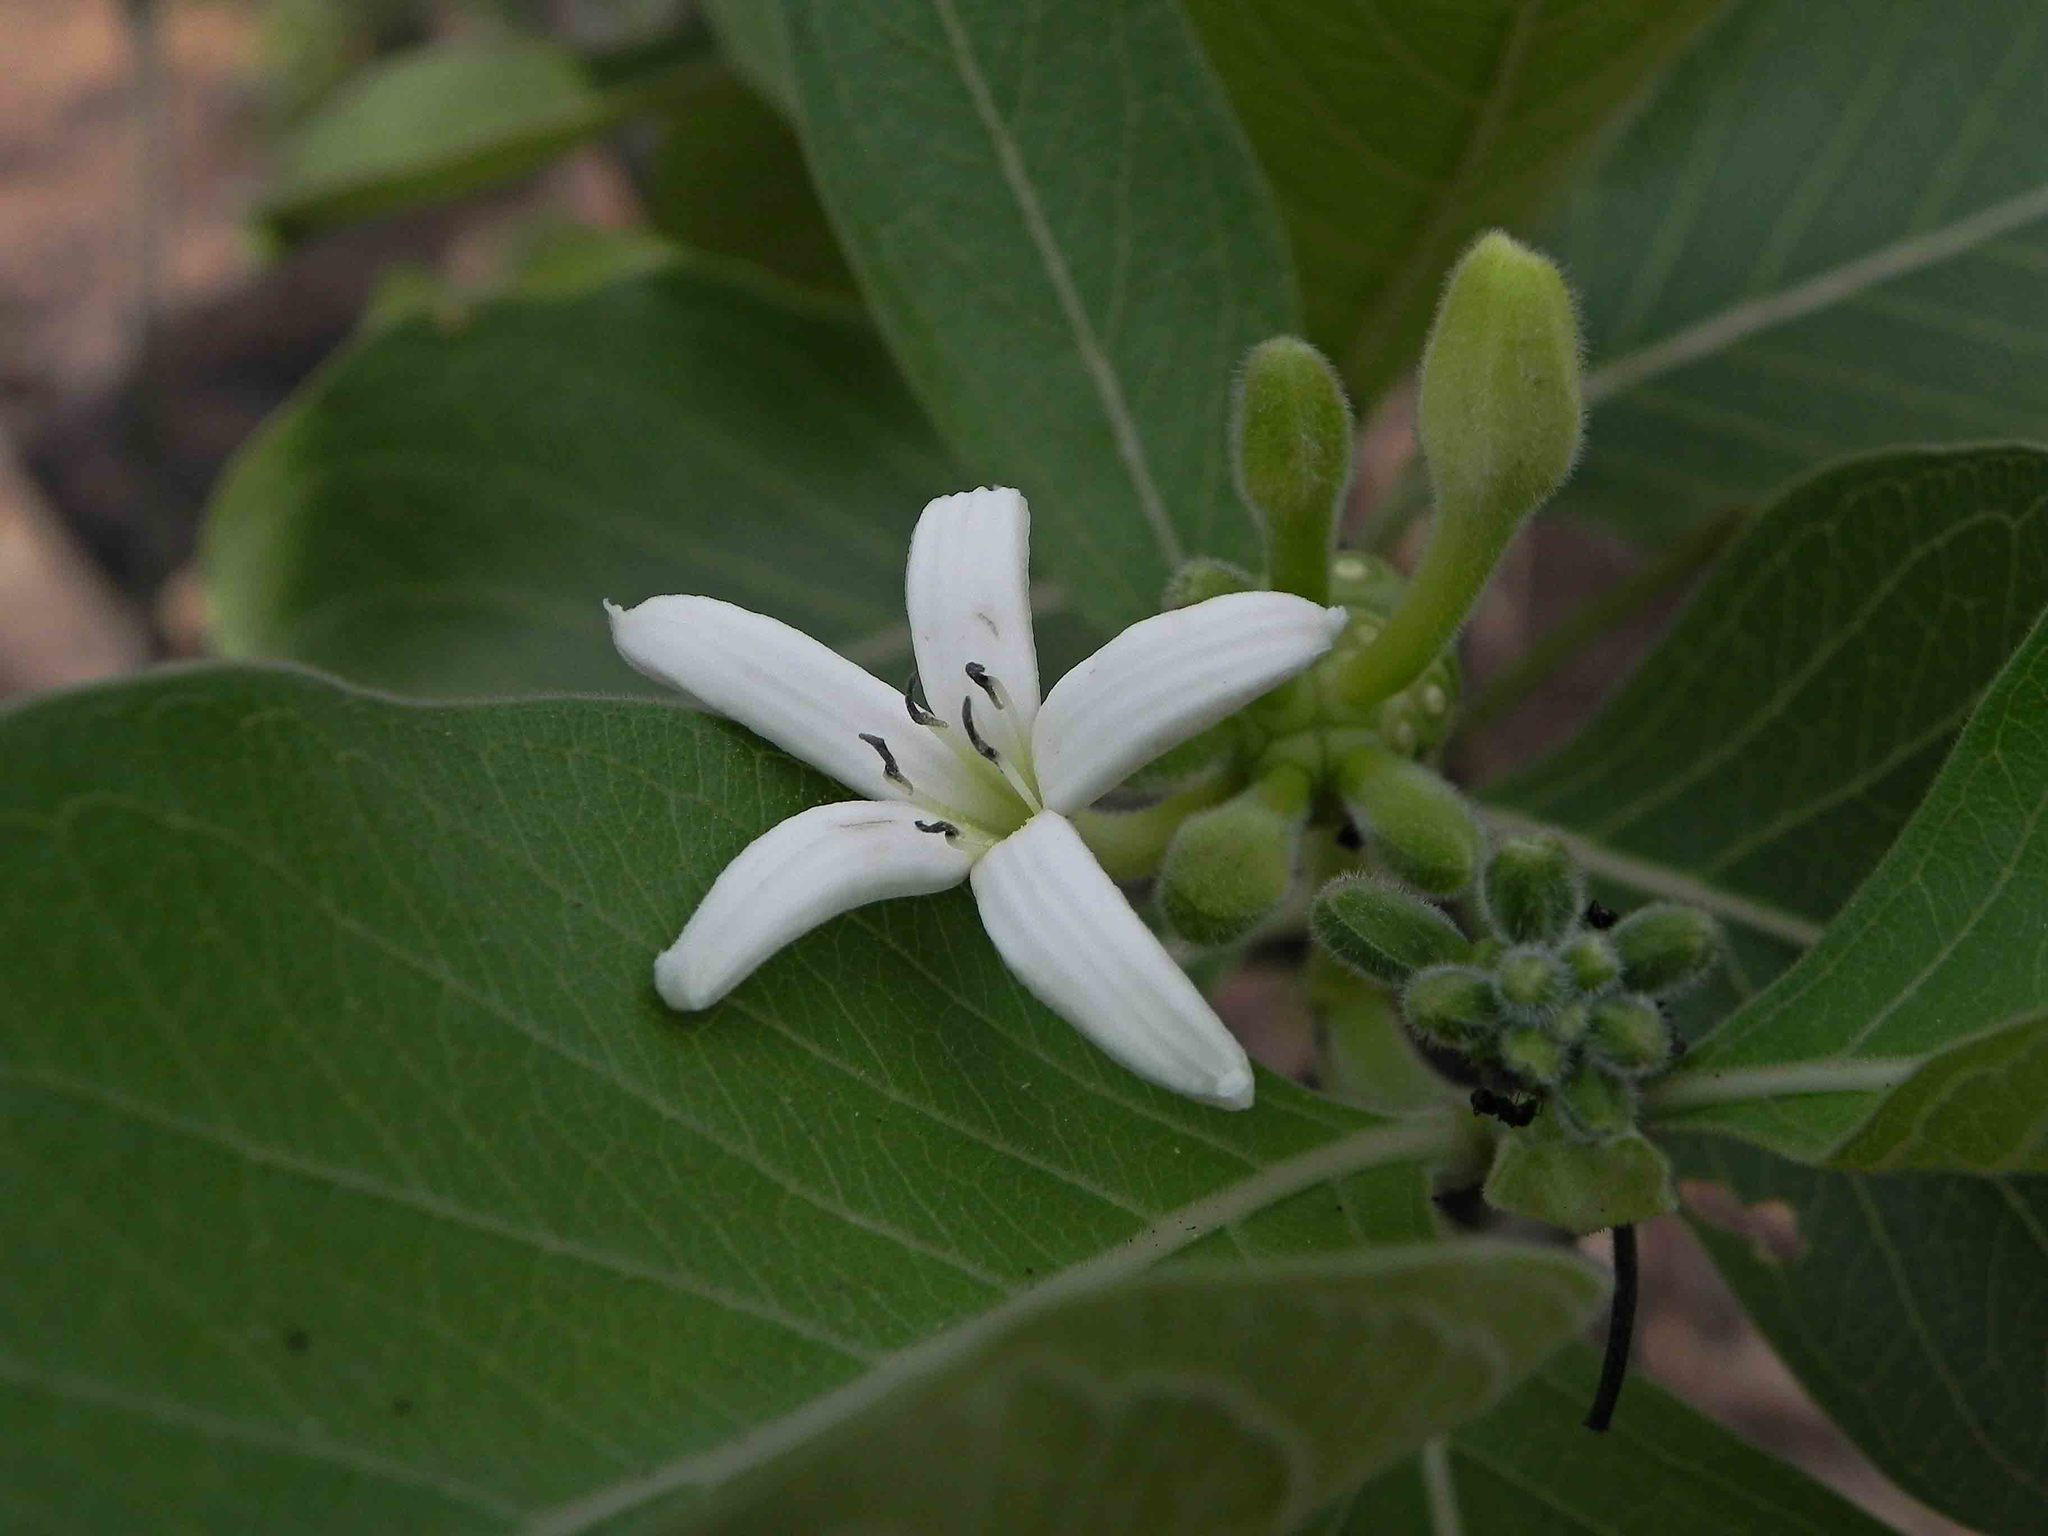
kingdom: Plantae
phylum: Tracheophyta
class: Magnoliopsida
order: Gentianales
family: Rubiaceae
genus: Morinda
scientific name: Morinda coreia
